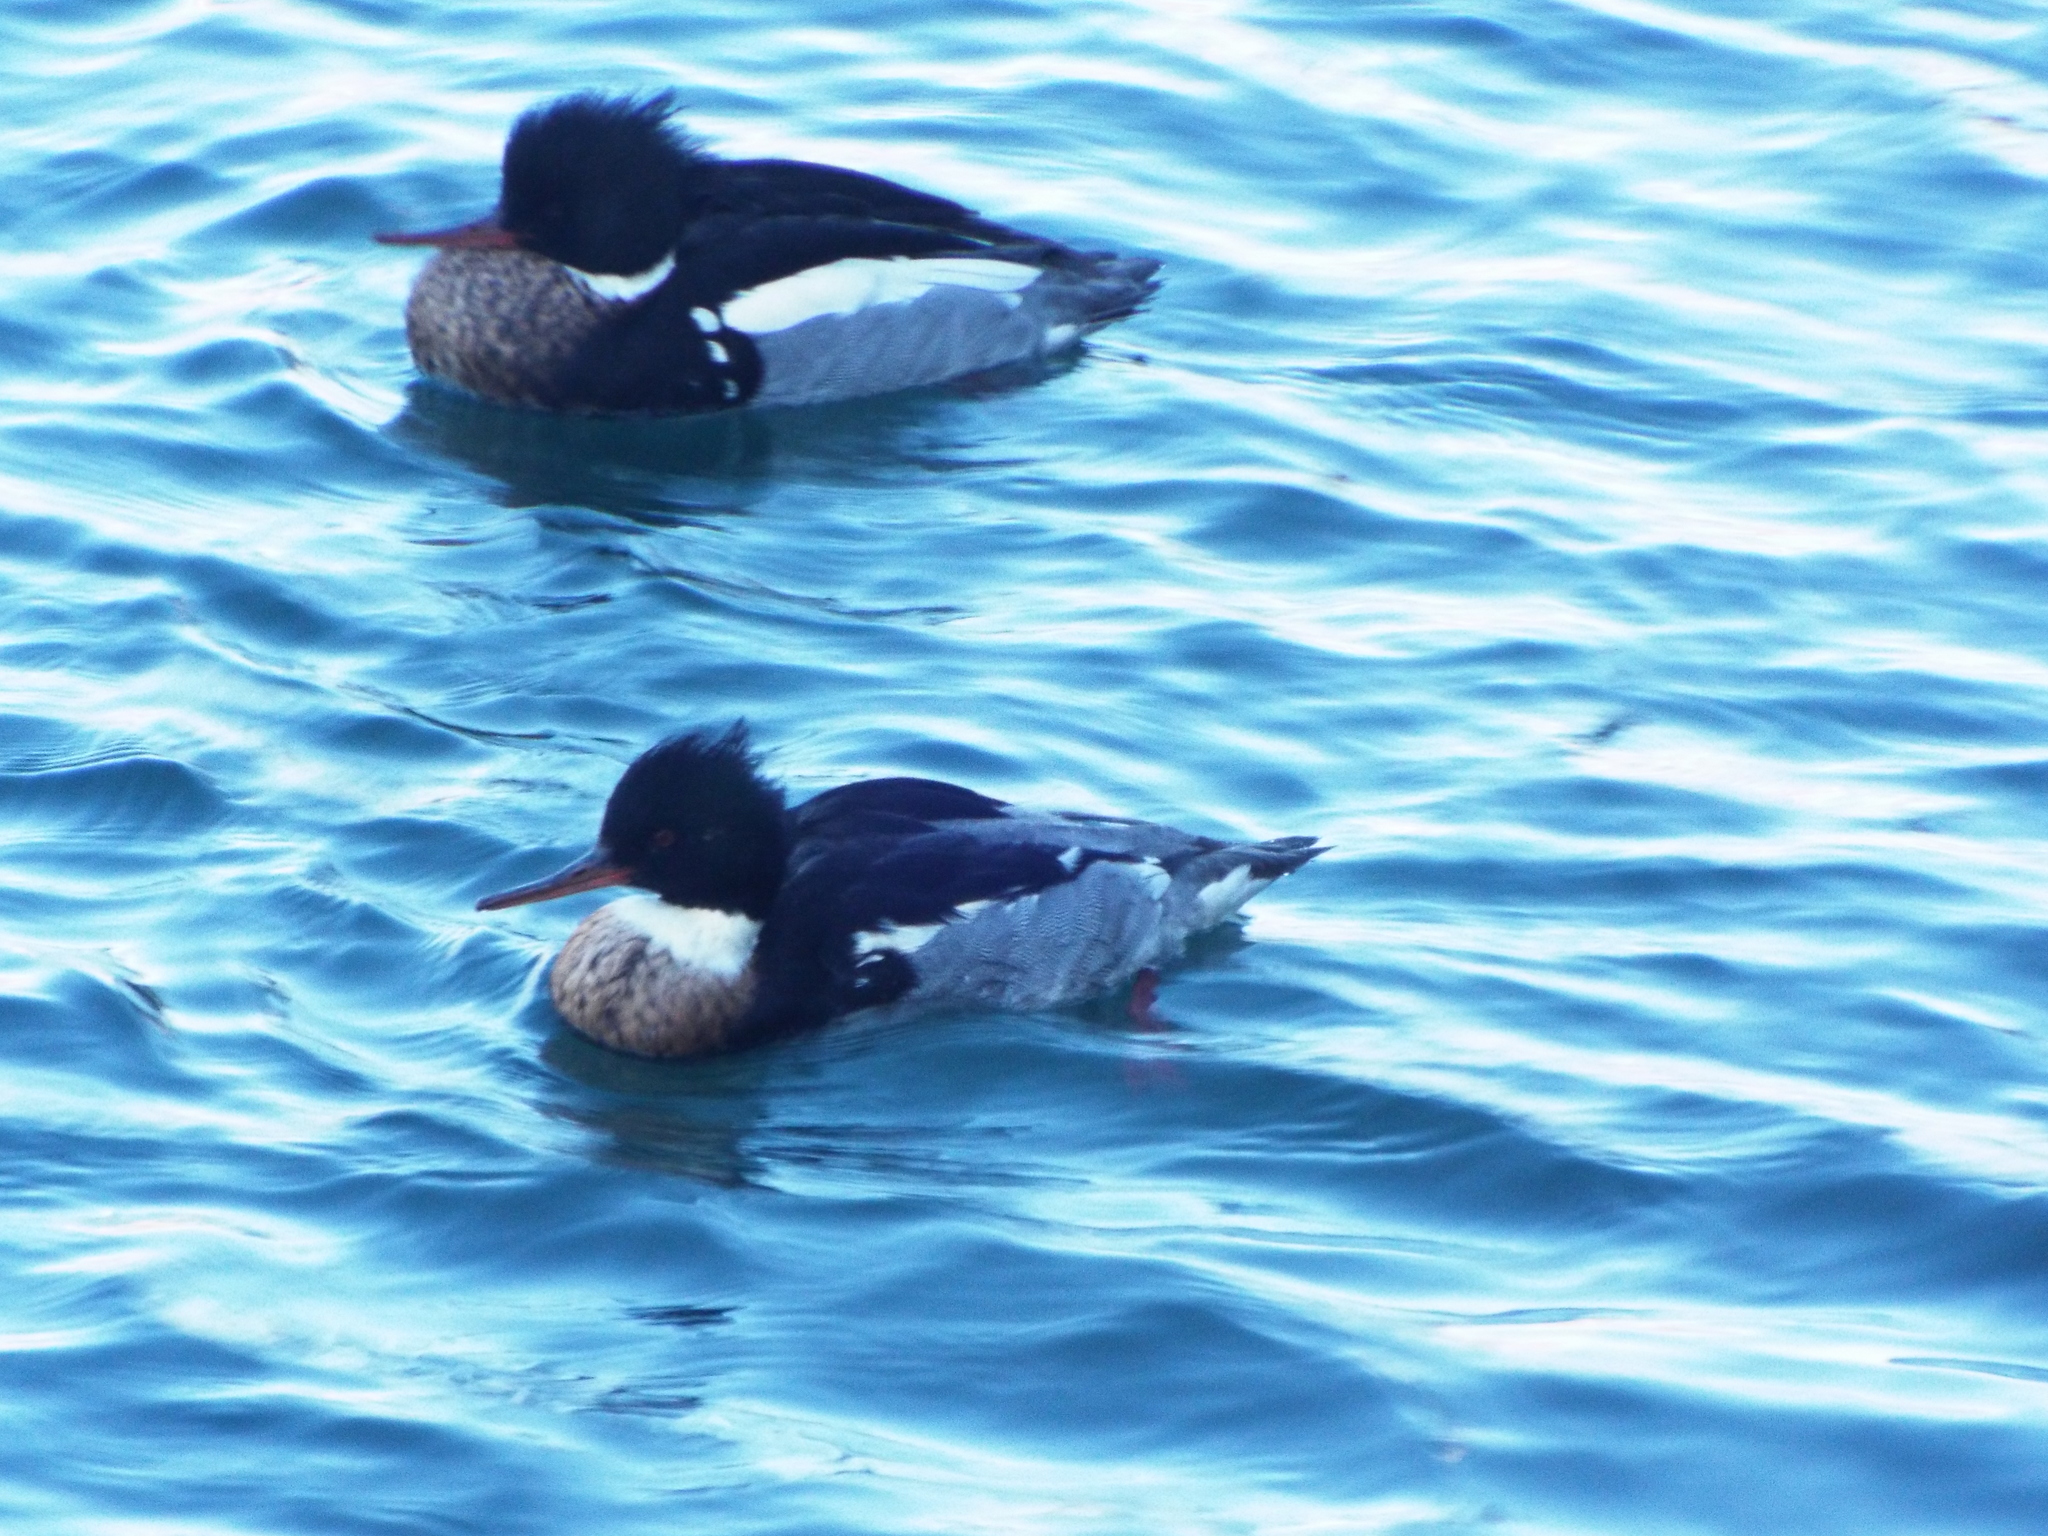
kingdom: Animalia
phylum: Chordata
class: Aves
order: Anseriformes
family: Anatidae
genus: Mergus
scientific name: Mergus serrator
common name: Red-breasted merganser
